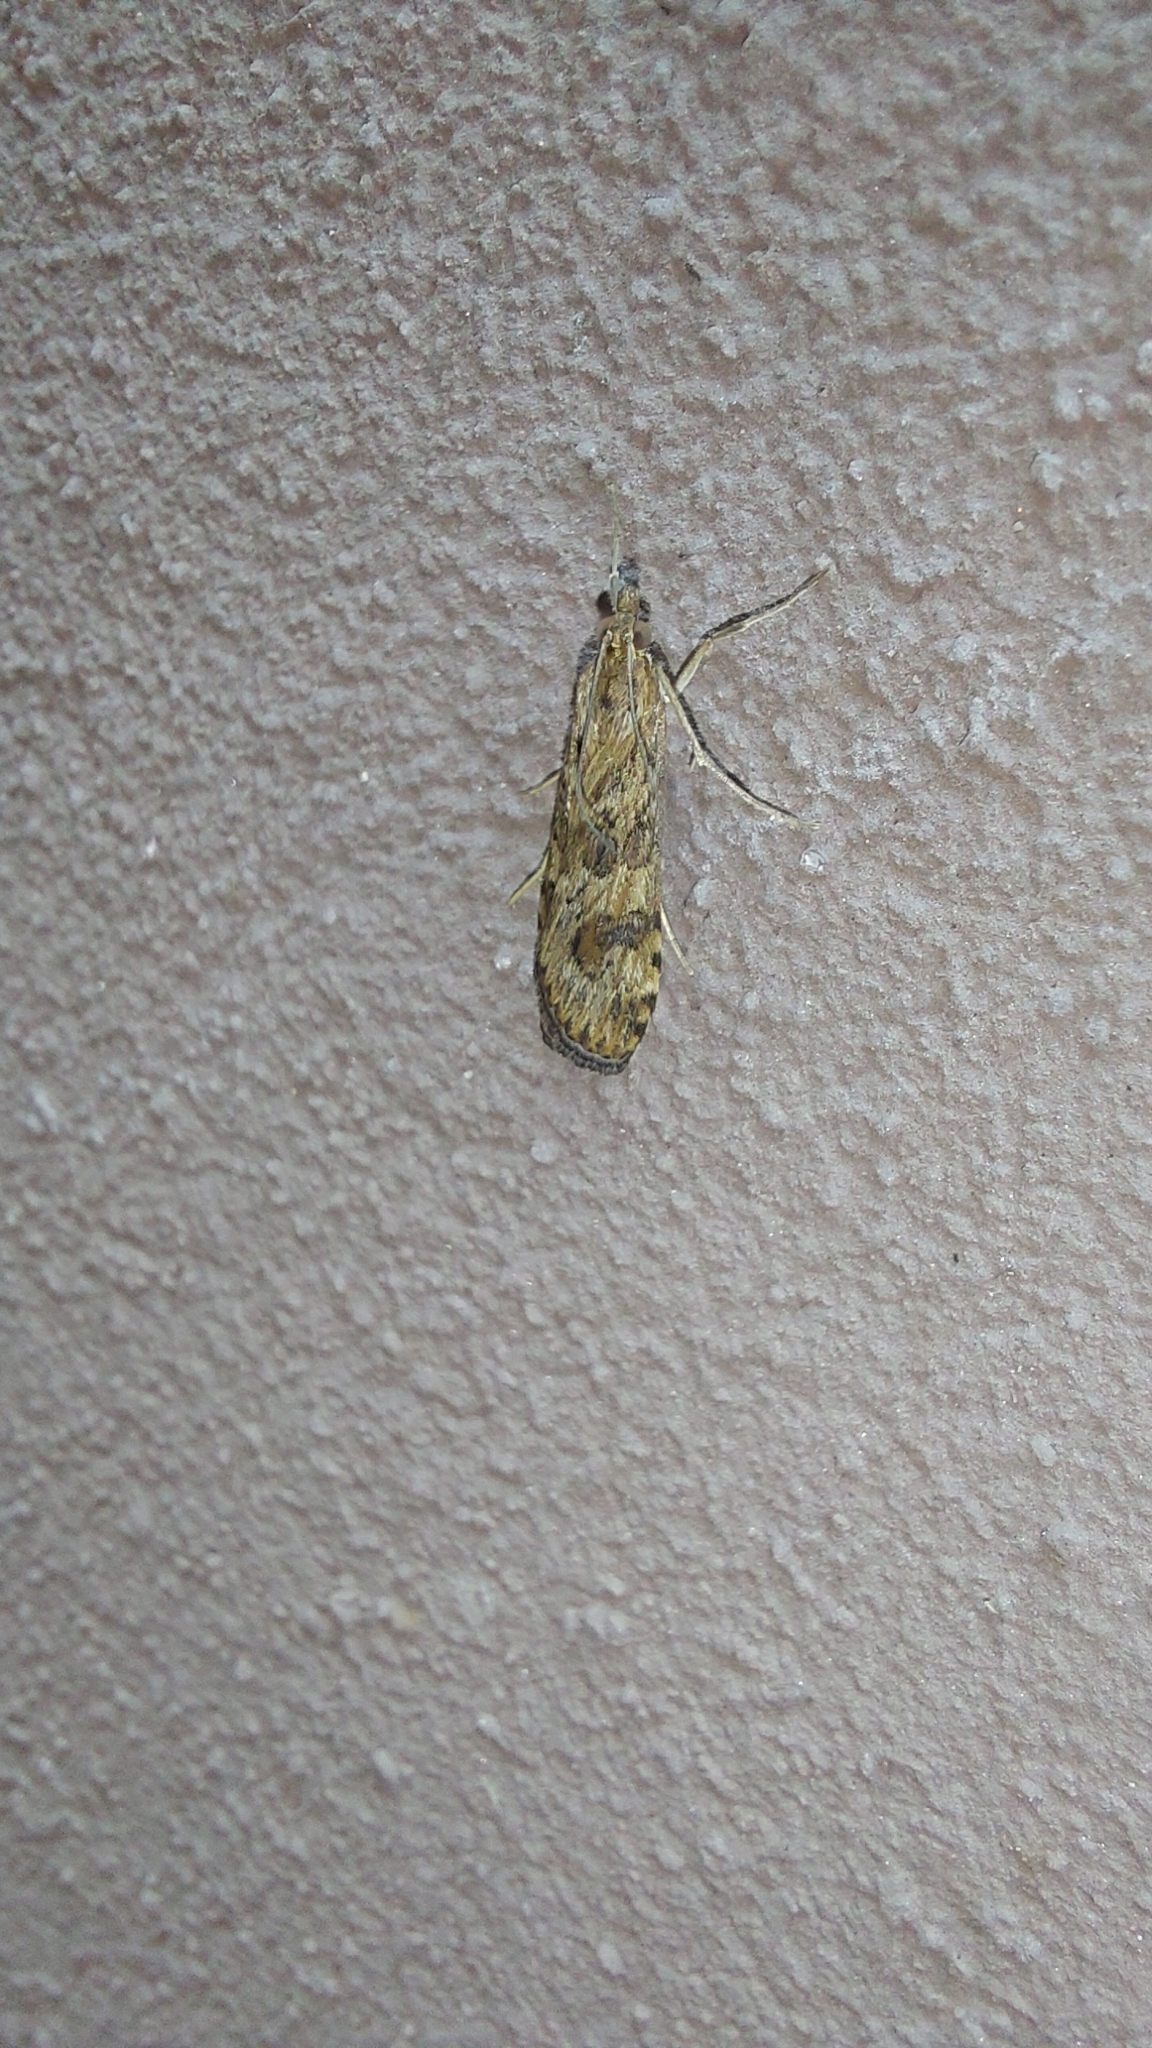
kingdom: Animalia
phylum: Arthropoda
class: Insecta
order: Lepidoptera
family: Crambidae
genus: Nomophila
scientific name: Nomophila noctuella
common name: Rush veneer
